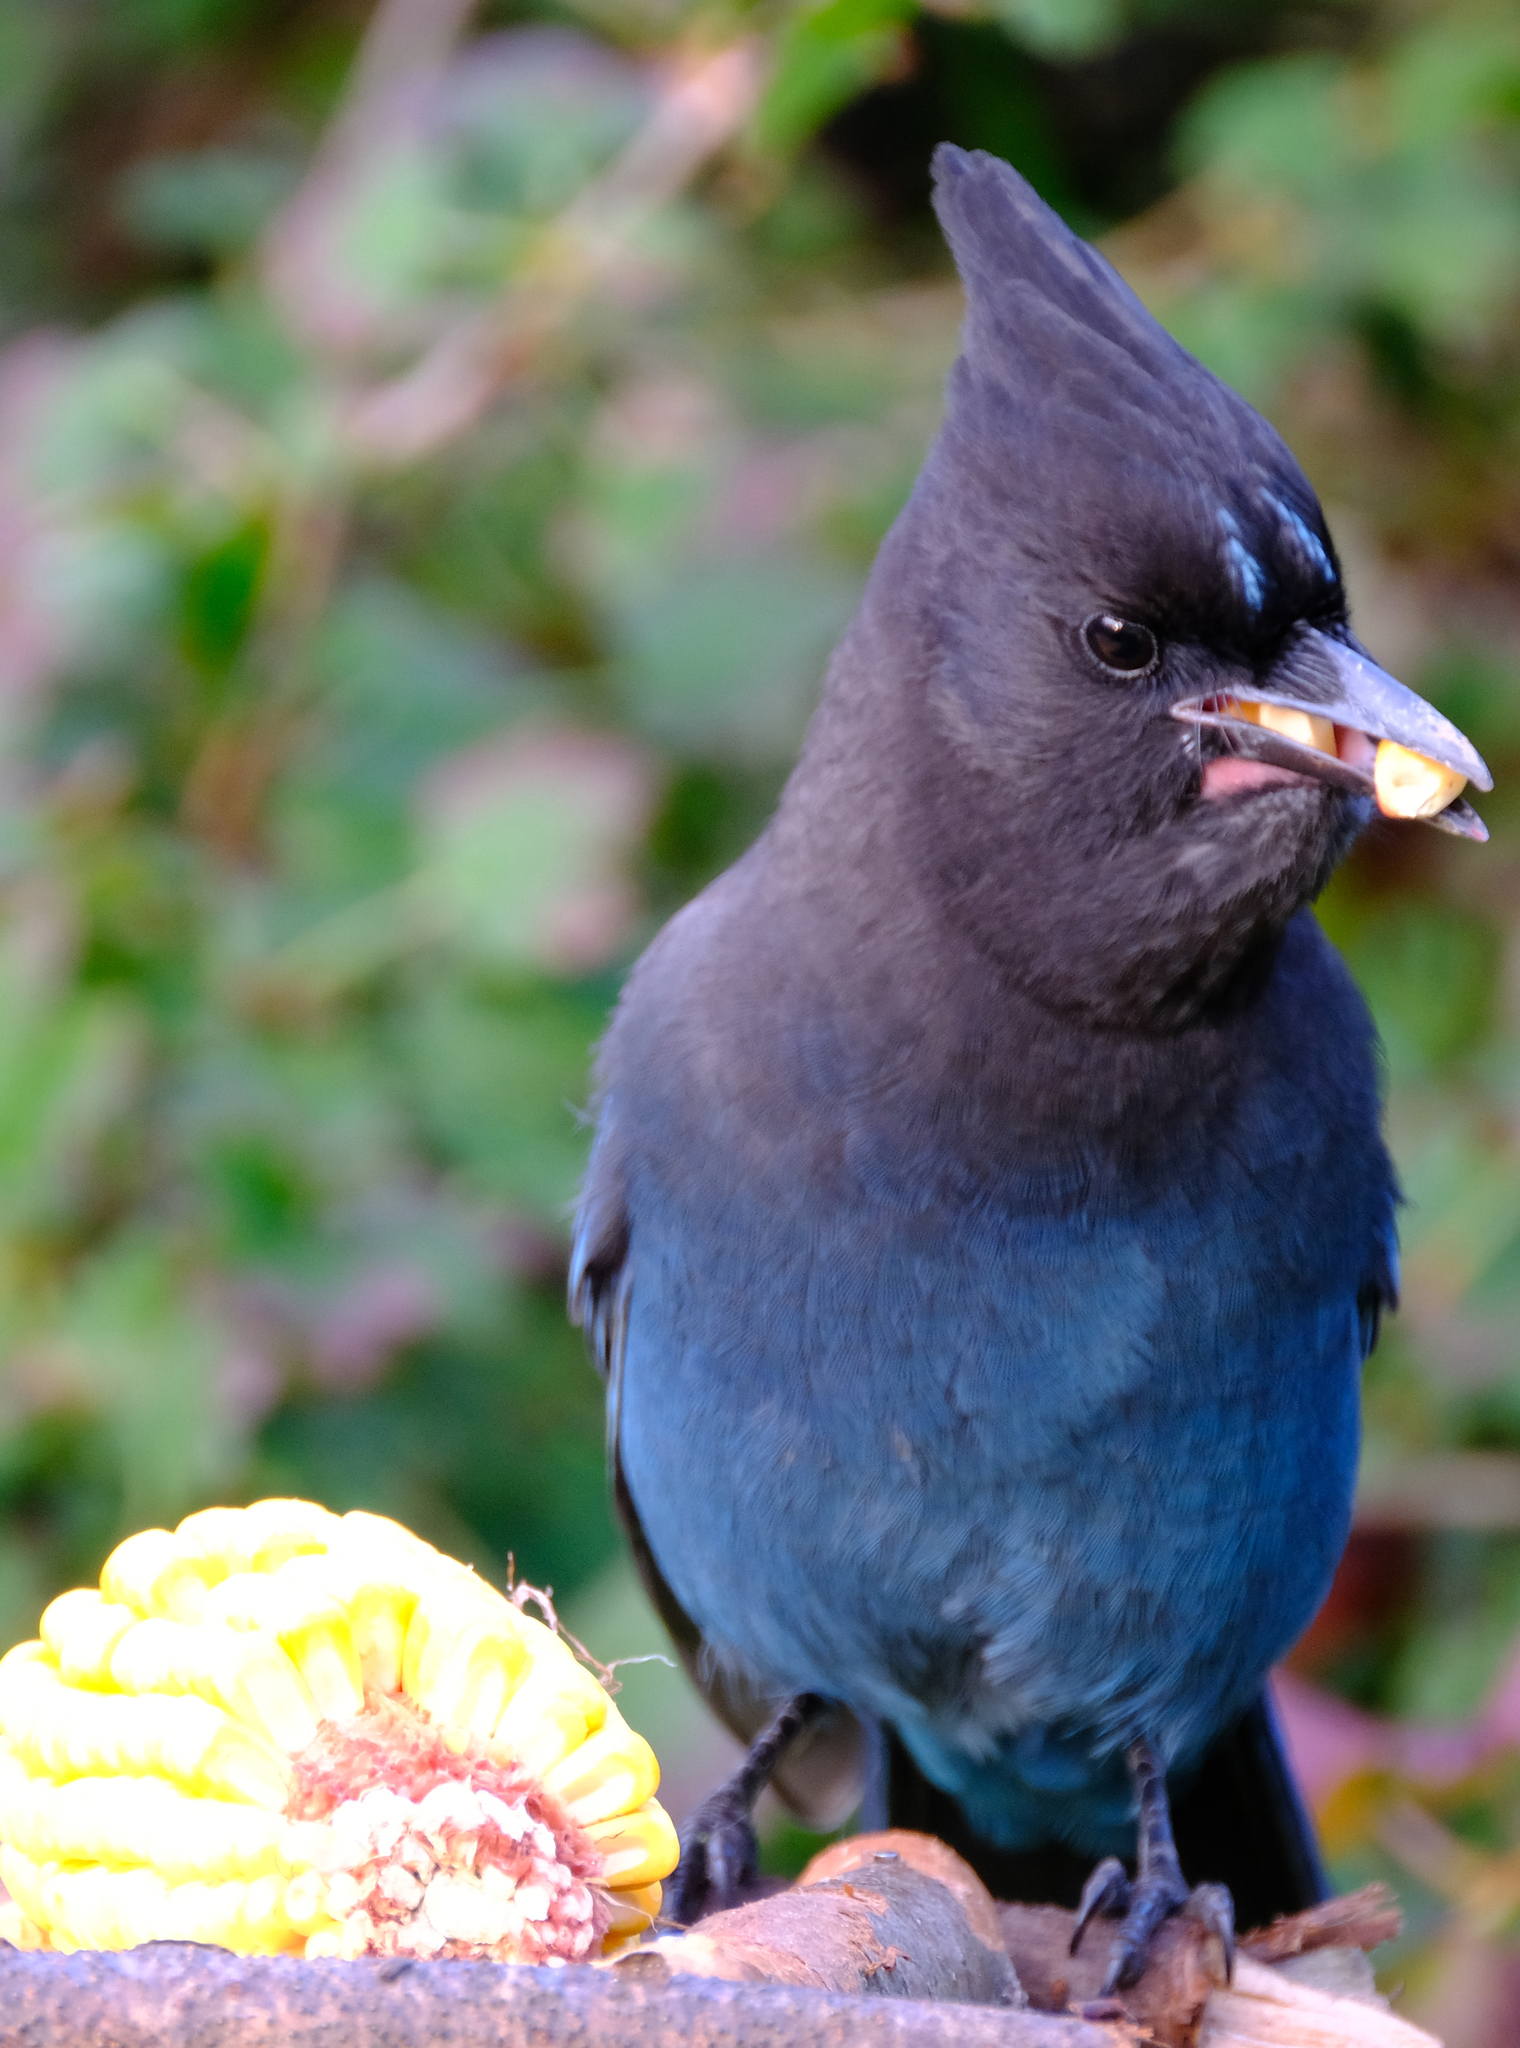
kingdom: Animalia
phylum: Chordata
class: Aves
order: Passeriformes
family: Corvidae
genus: Cyanocitta
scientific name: Cyanocitta stelleri
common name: Steller's jay
